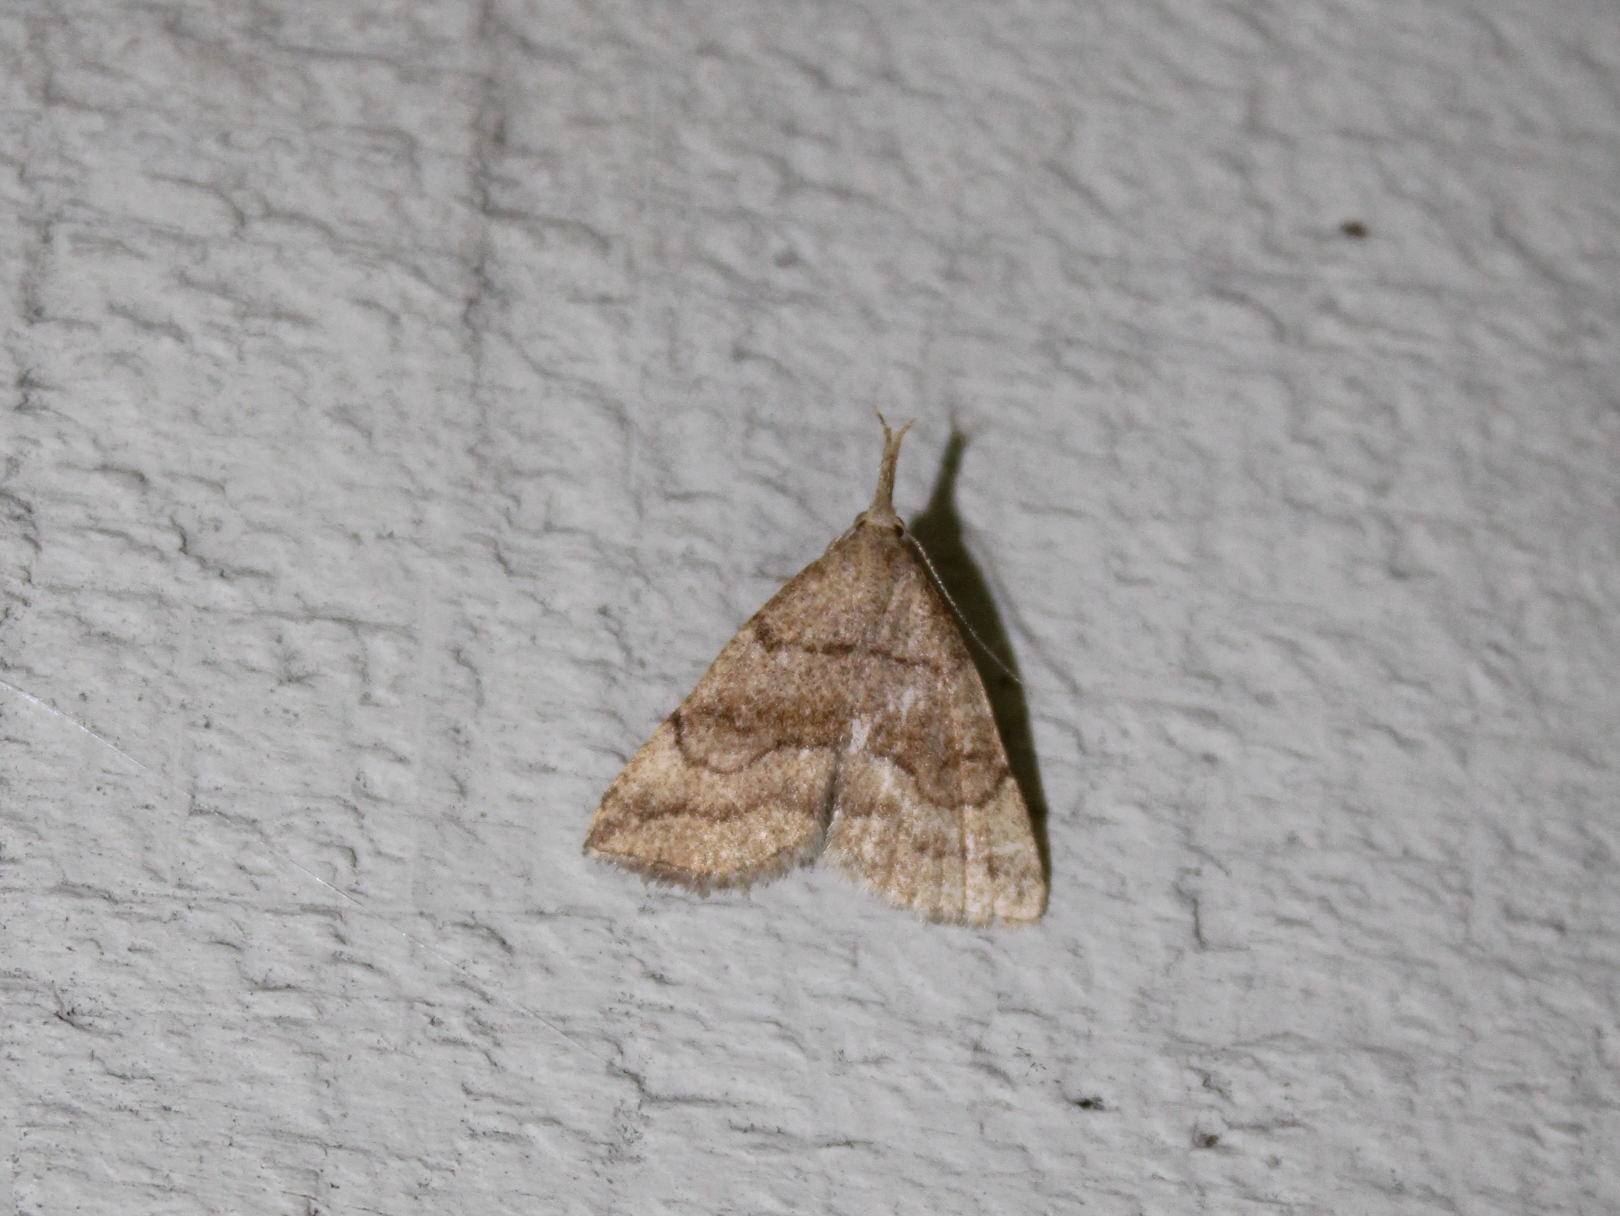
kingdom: Animalia
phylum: Arthropoda
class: Insecta
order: Lepidoptera
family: Erebidae
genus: Phalaenostola
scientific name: Phalaenostola metonalis
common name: Pale phalaenostola moth
